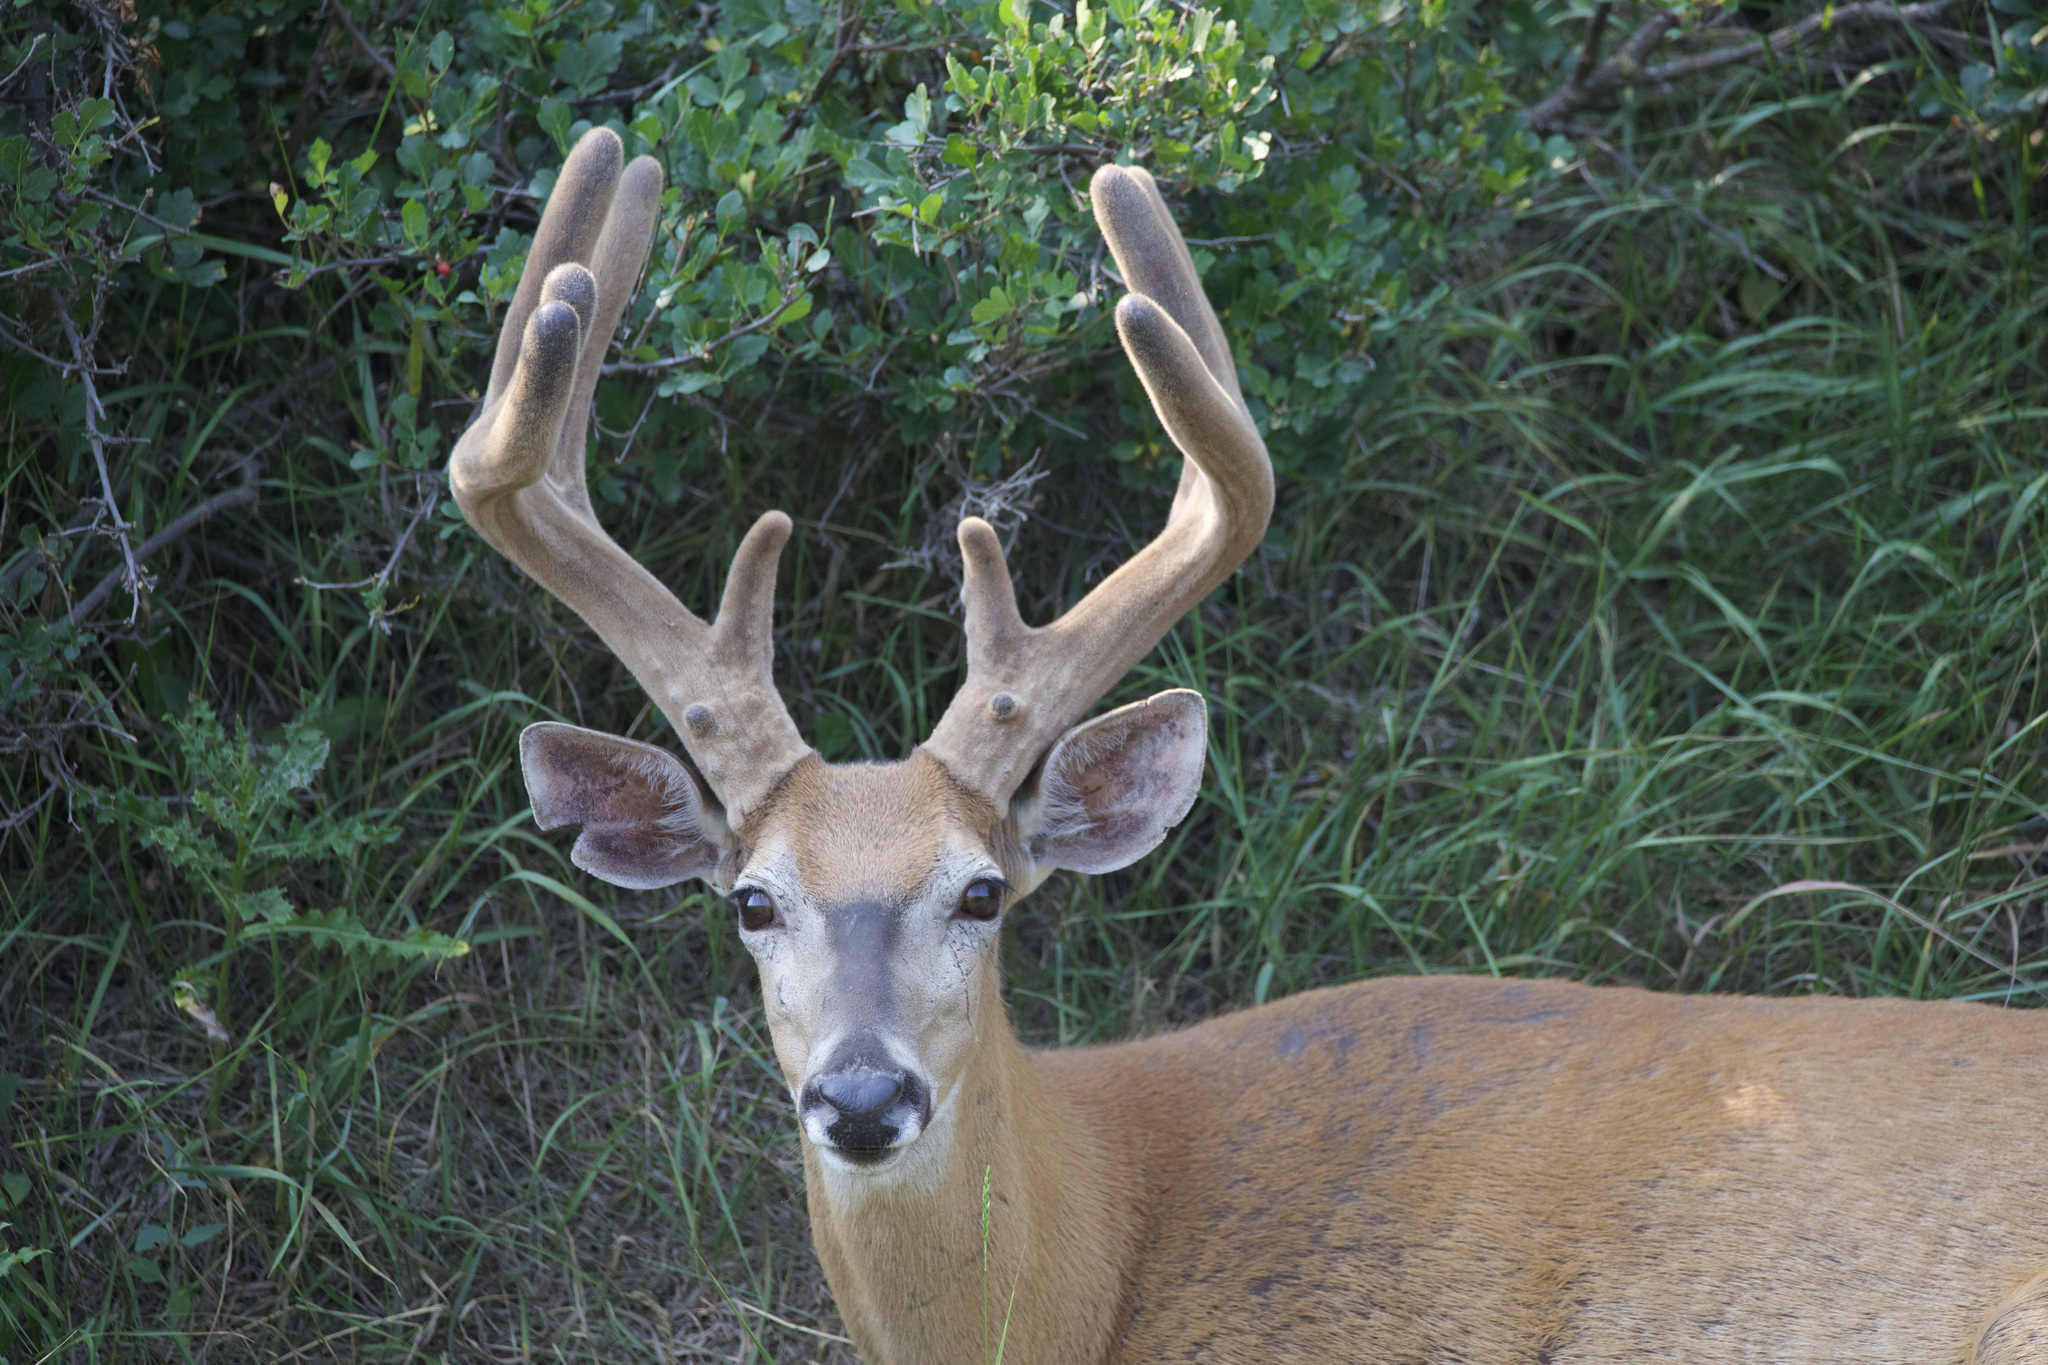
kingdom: Animalia
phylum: Chordata
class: Mammalia
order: Artiodactyla
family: Cervidae
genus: Odocoileus
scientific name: Odocoileus virginianus
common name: White-tailed deer
